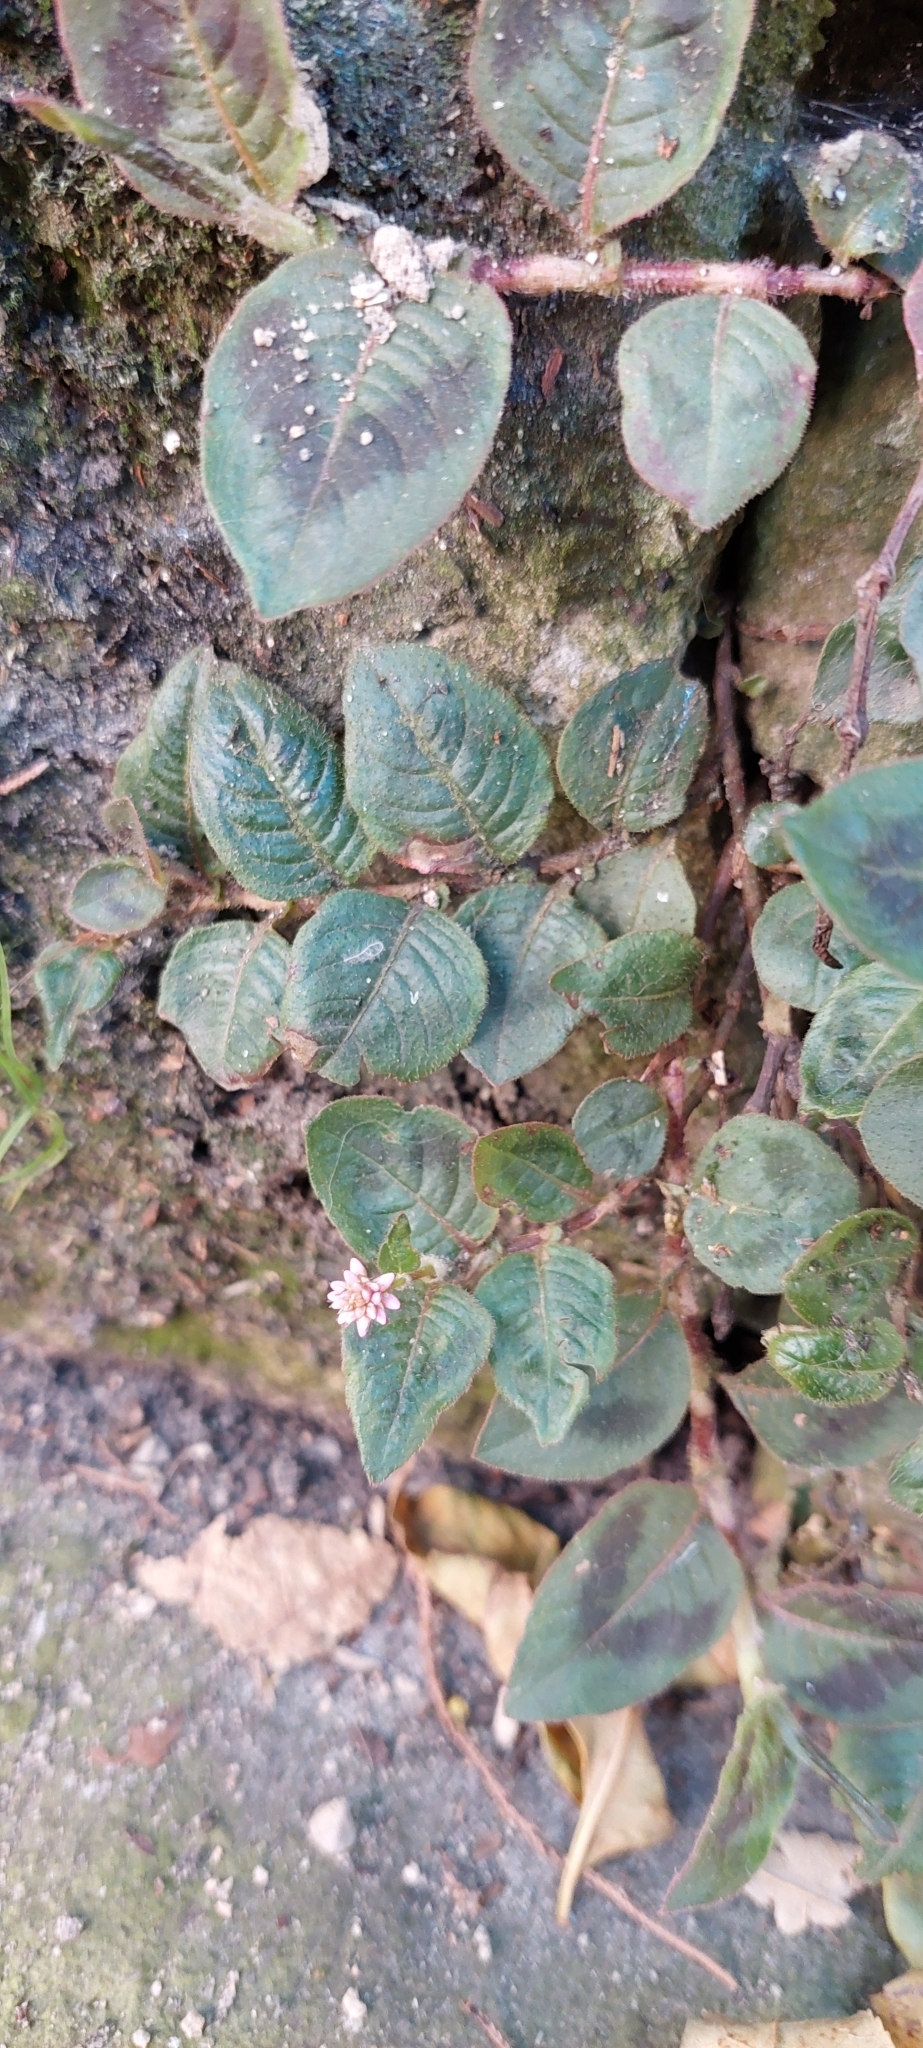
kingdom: Plantae
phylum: Tracheophyta
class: Magnoliopsida
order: Caryophyllales
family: Polygonaceae
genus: Persicaria
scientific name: Persicaria capitata
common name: Pinkhead smartweed
